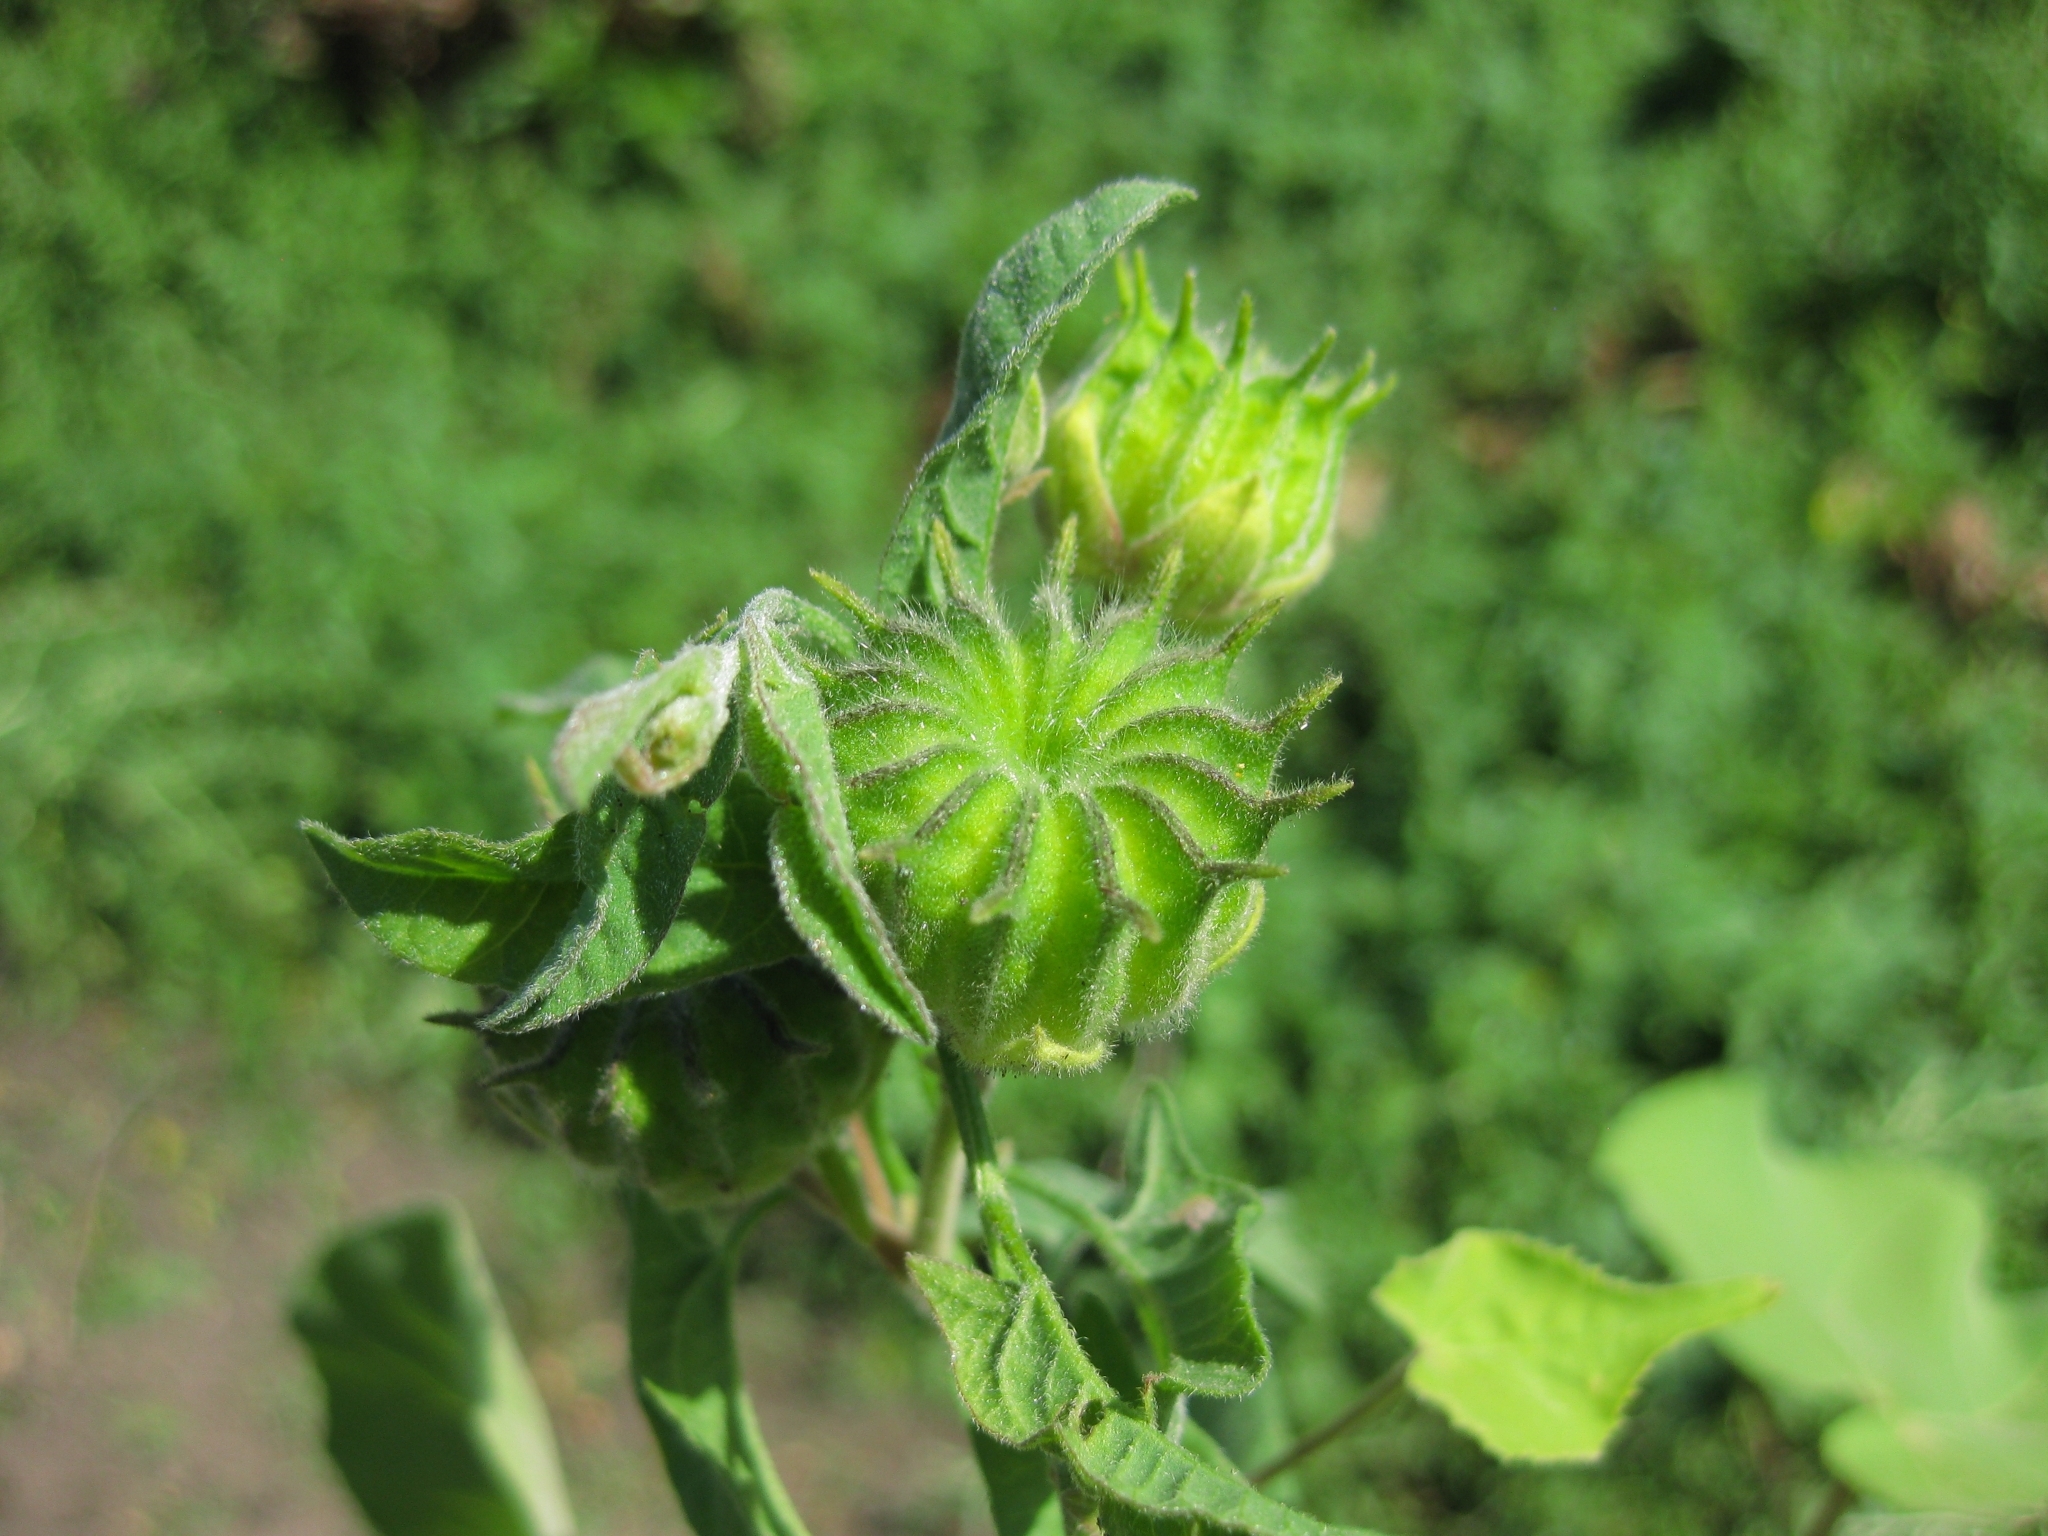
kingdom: Plantae
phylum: Tracheophyta
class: Magnoliopsida
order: Malvales
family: Malvaceae
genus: Abutilon
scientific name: Abutilon theophrasti
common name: Velvetleaf
